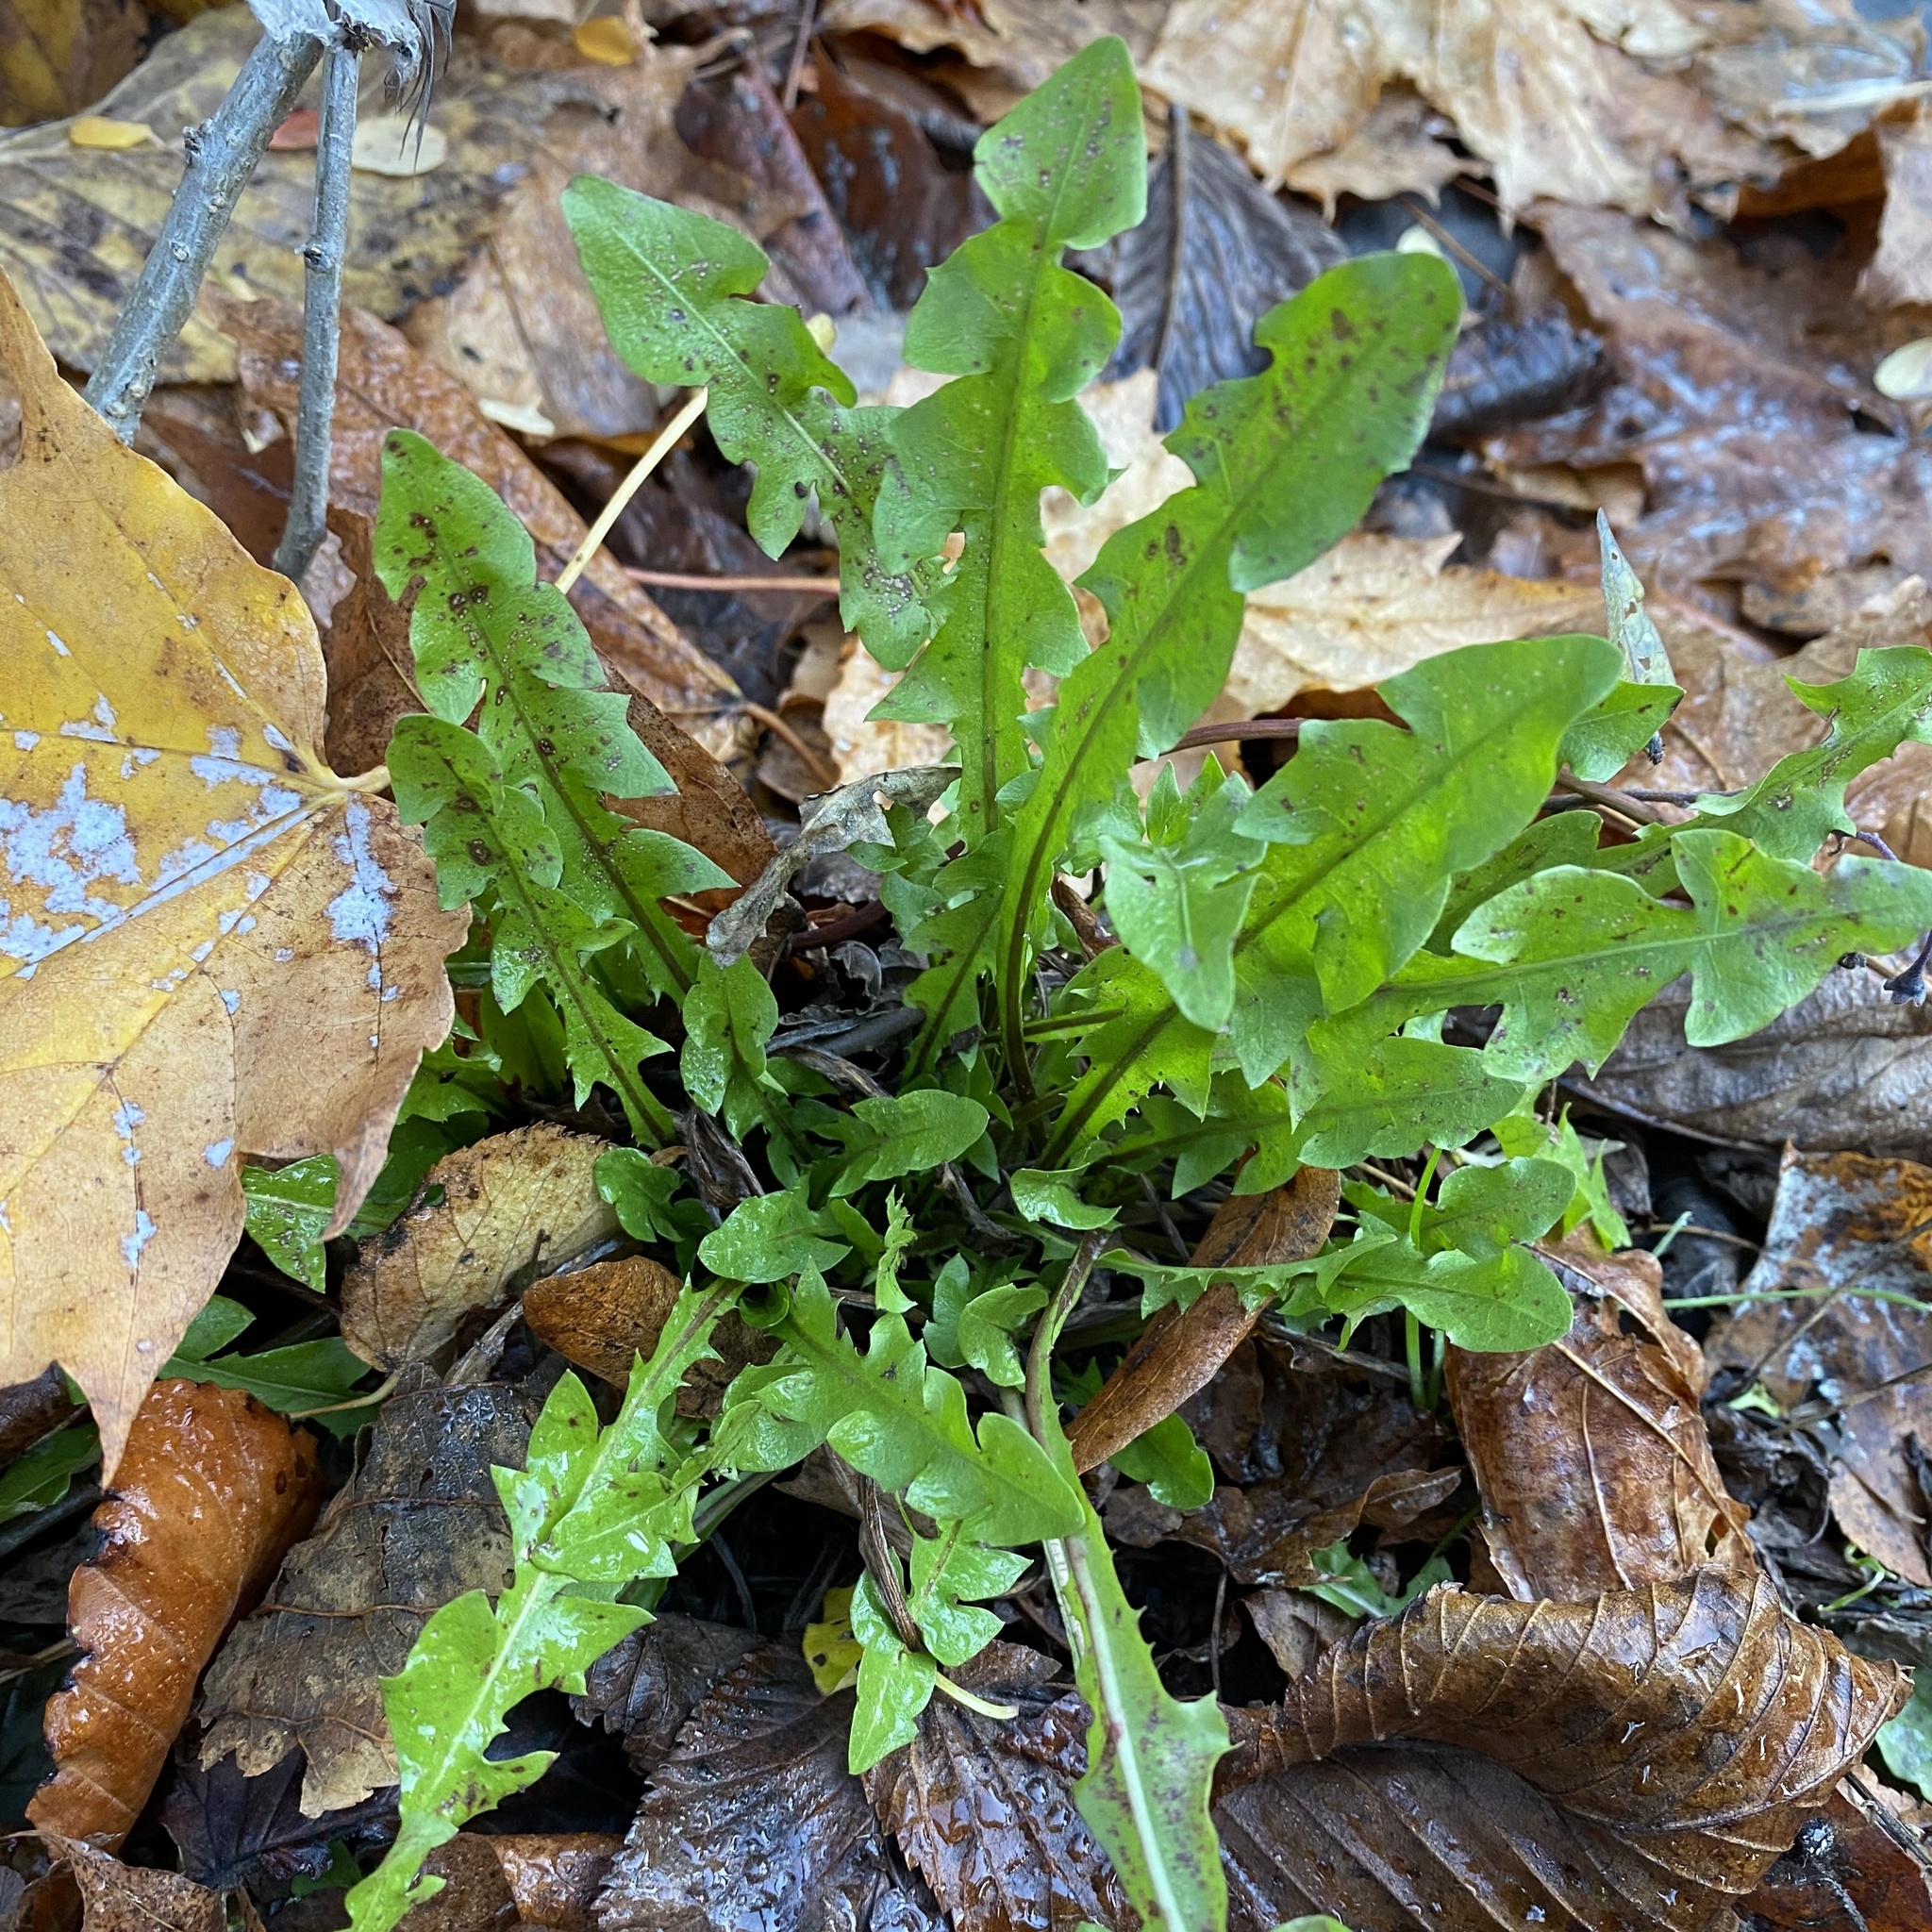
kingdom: Plantae
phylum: Tracheophyta
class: Magnoliopsida
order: Asterales
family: Asteraceae
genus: Taraxacum
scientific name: Taraxacum officinale
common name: Common dandelion
